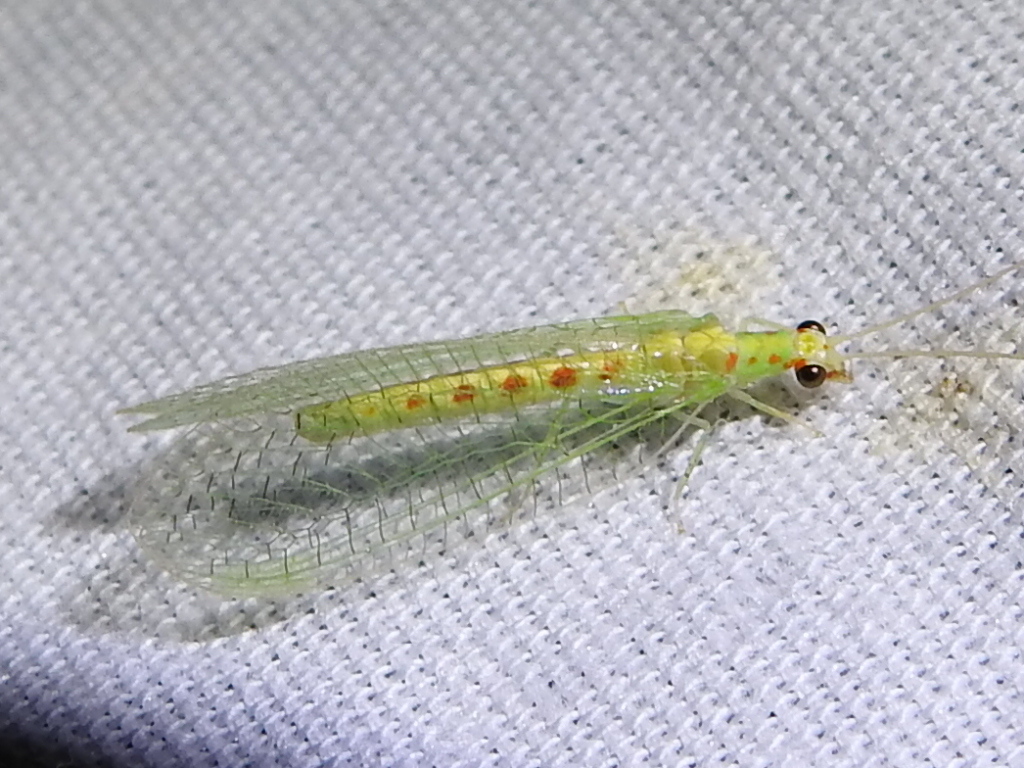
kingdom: Animalia
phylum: Arthropoda
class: Insecta
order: Neuroptera
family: Chrysopidae
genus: Chrysopa
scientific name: Chrysopa quadripunctata
